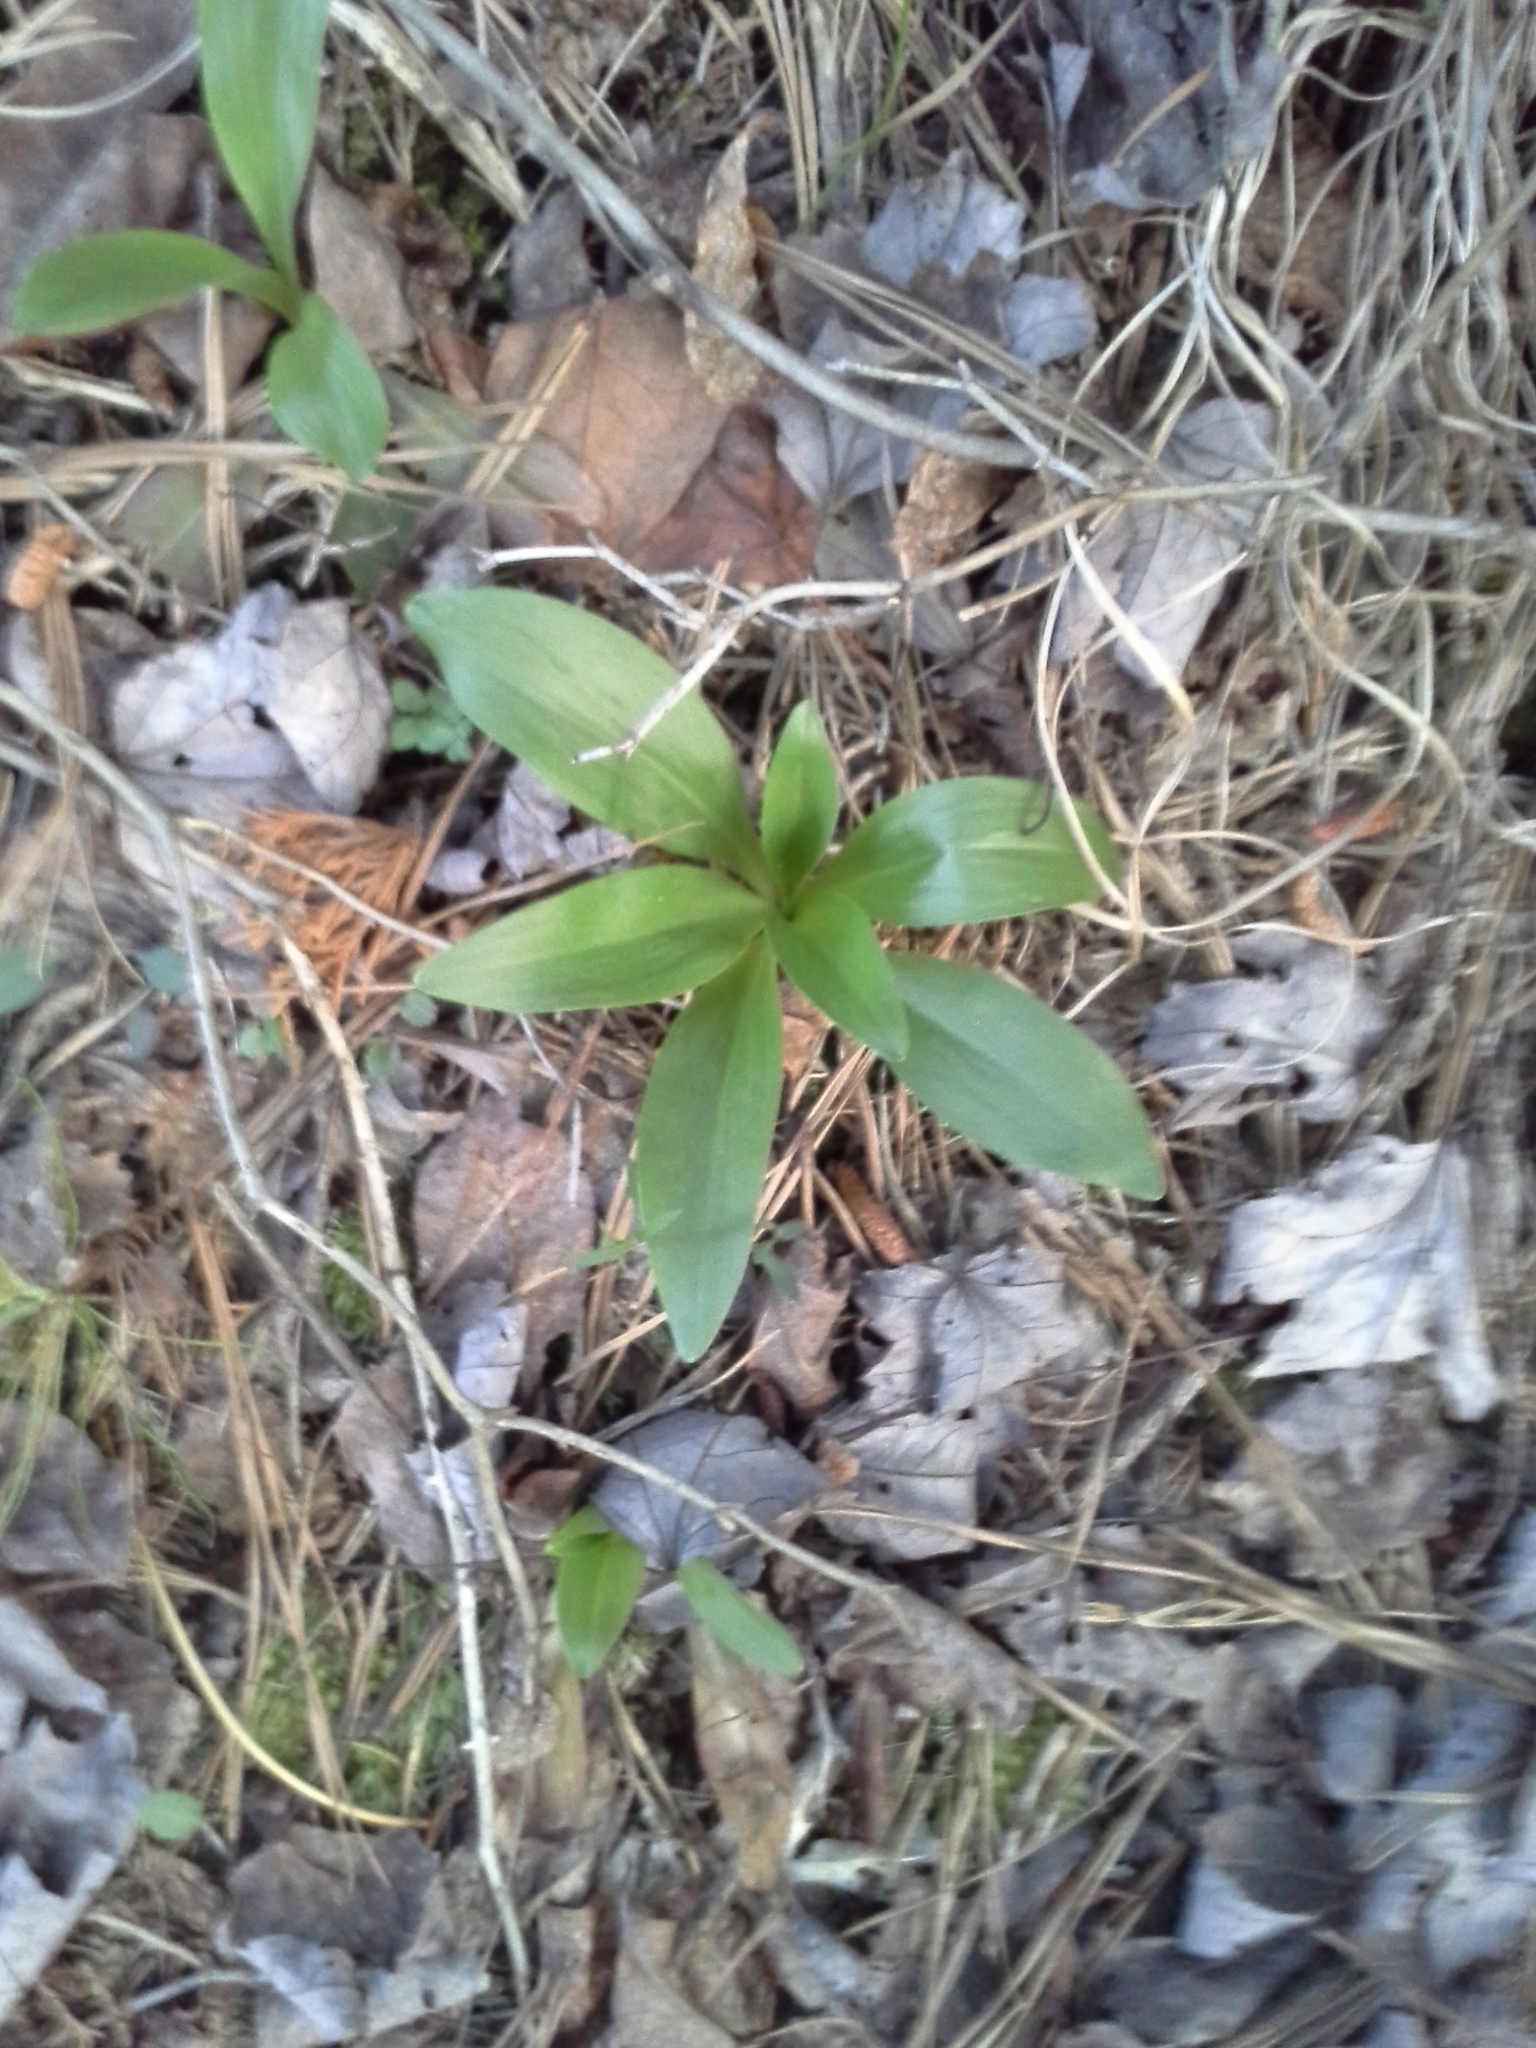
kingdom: Plantae
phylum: Tracheophyta
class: Liliopsida
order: Liliales
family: Melanthiaceae
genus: Chamaelirium
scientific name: Chamaelirium luteum
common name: Fairy-wand
